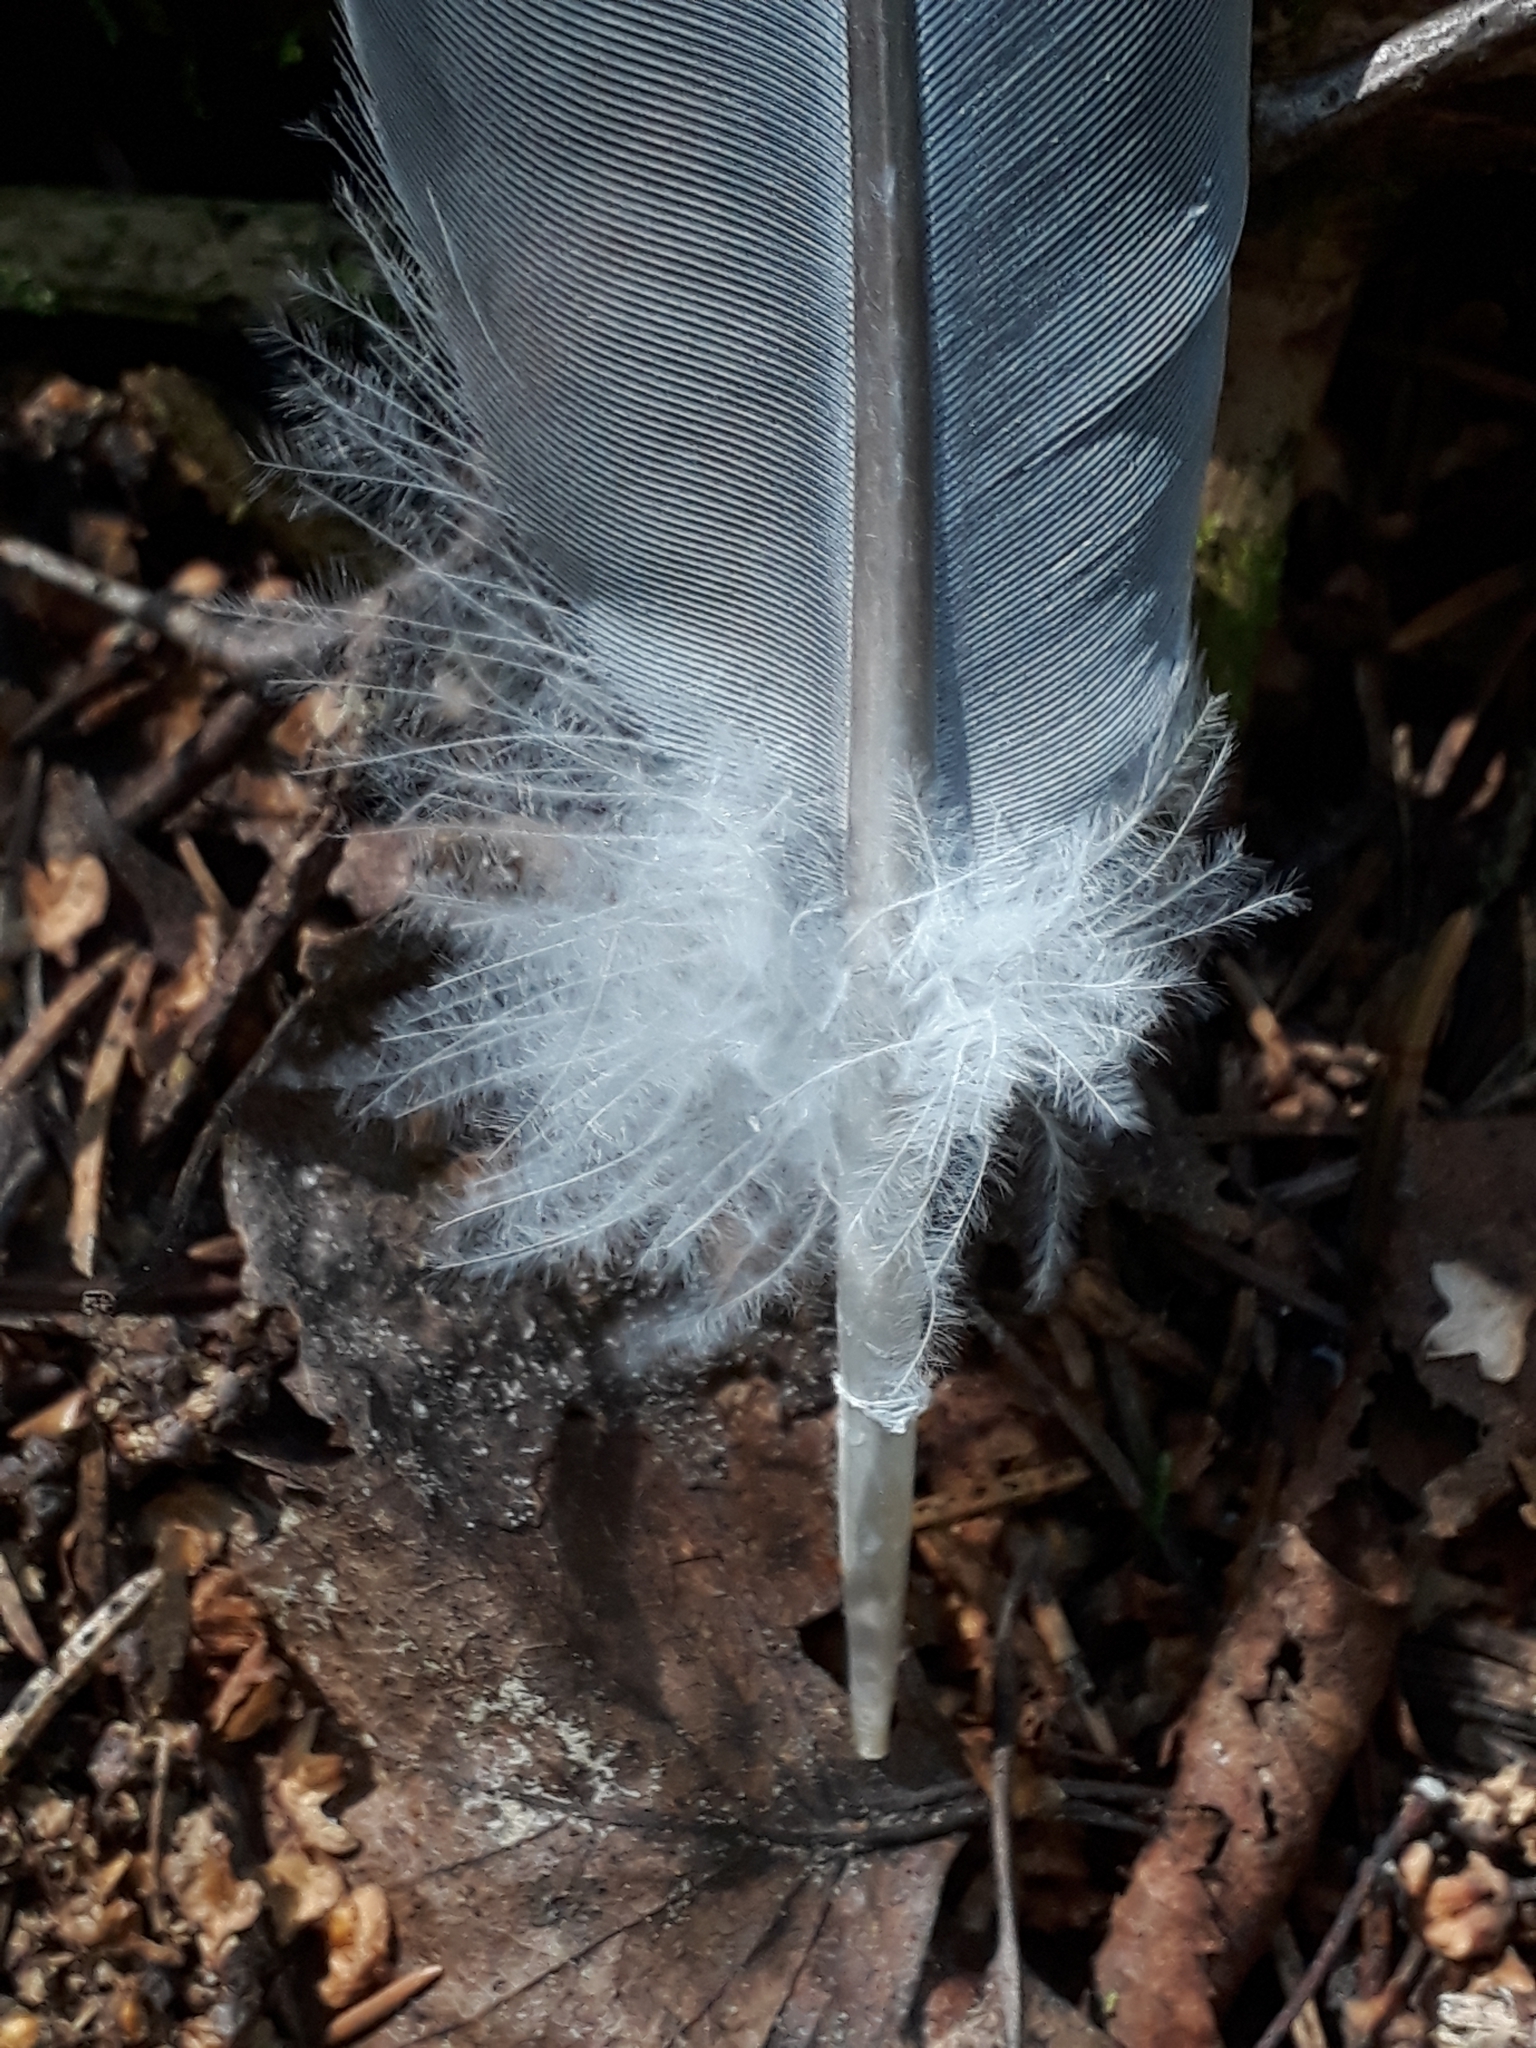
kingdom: Animalia
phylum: Chordata
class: Aves
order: Columbiformes
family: Columbidae
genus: Columba
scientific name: Columba palumbus
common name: Common wood pigeon
